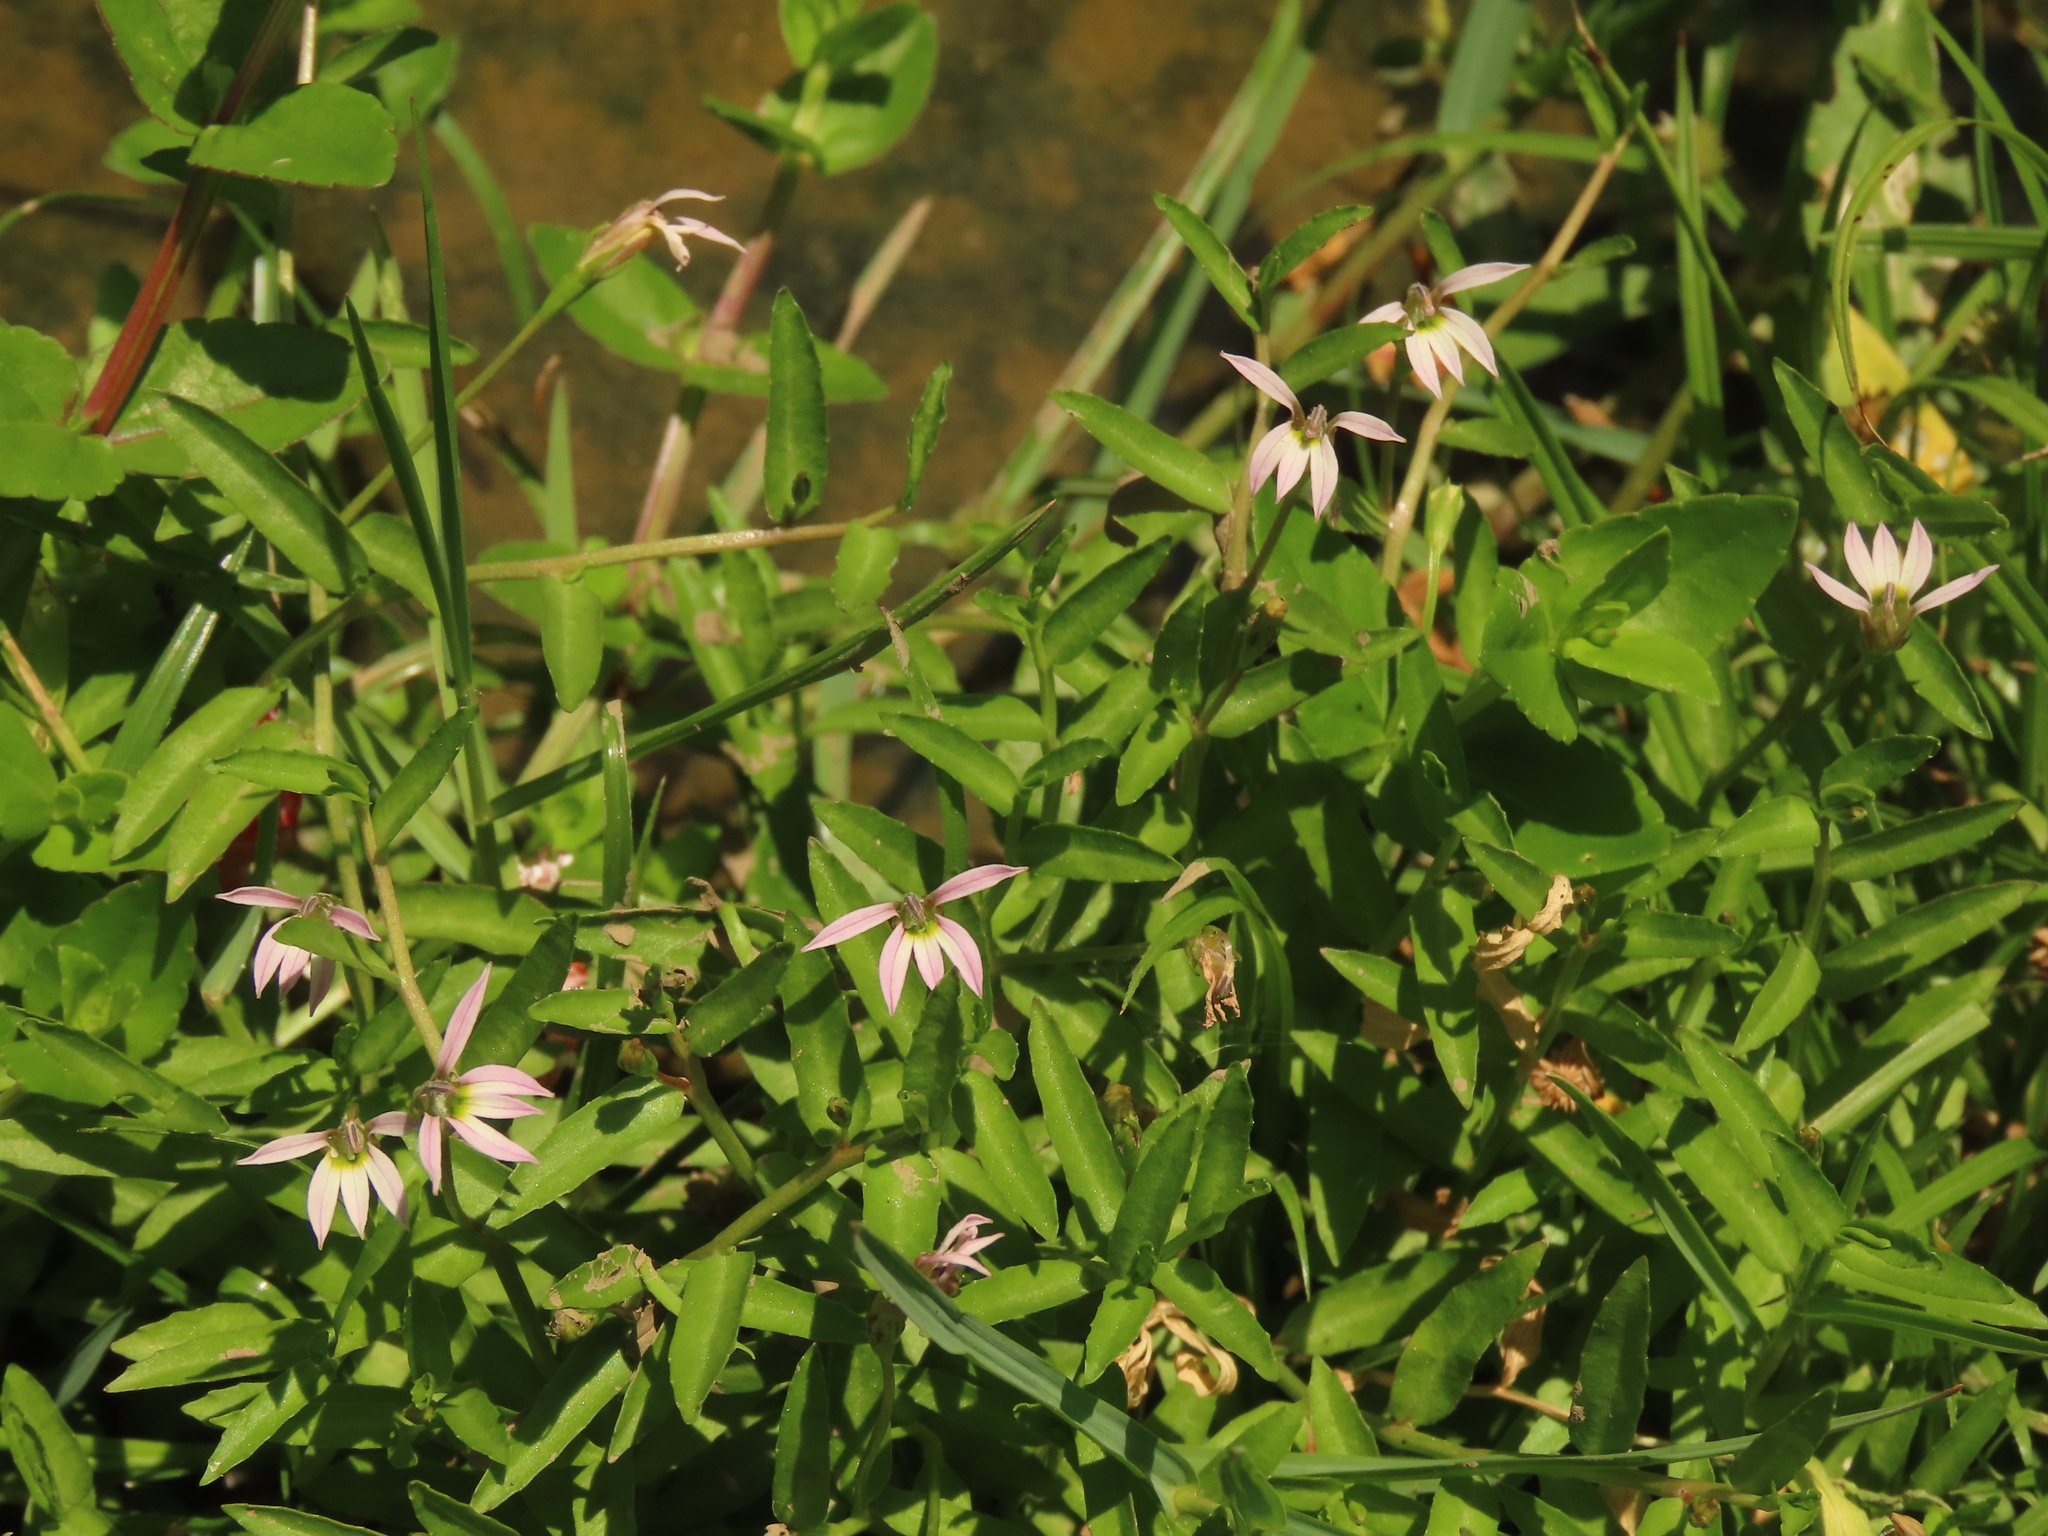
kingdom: Plantae
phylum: Tracheophyta
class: Magnoliopsida
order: Asterales
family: Campanulaceae
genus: Lobelia
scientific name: Lobelia chinensis
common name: Chinese lobelia
